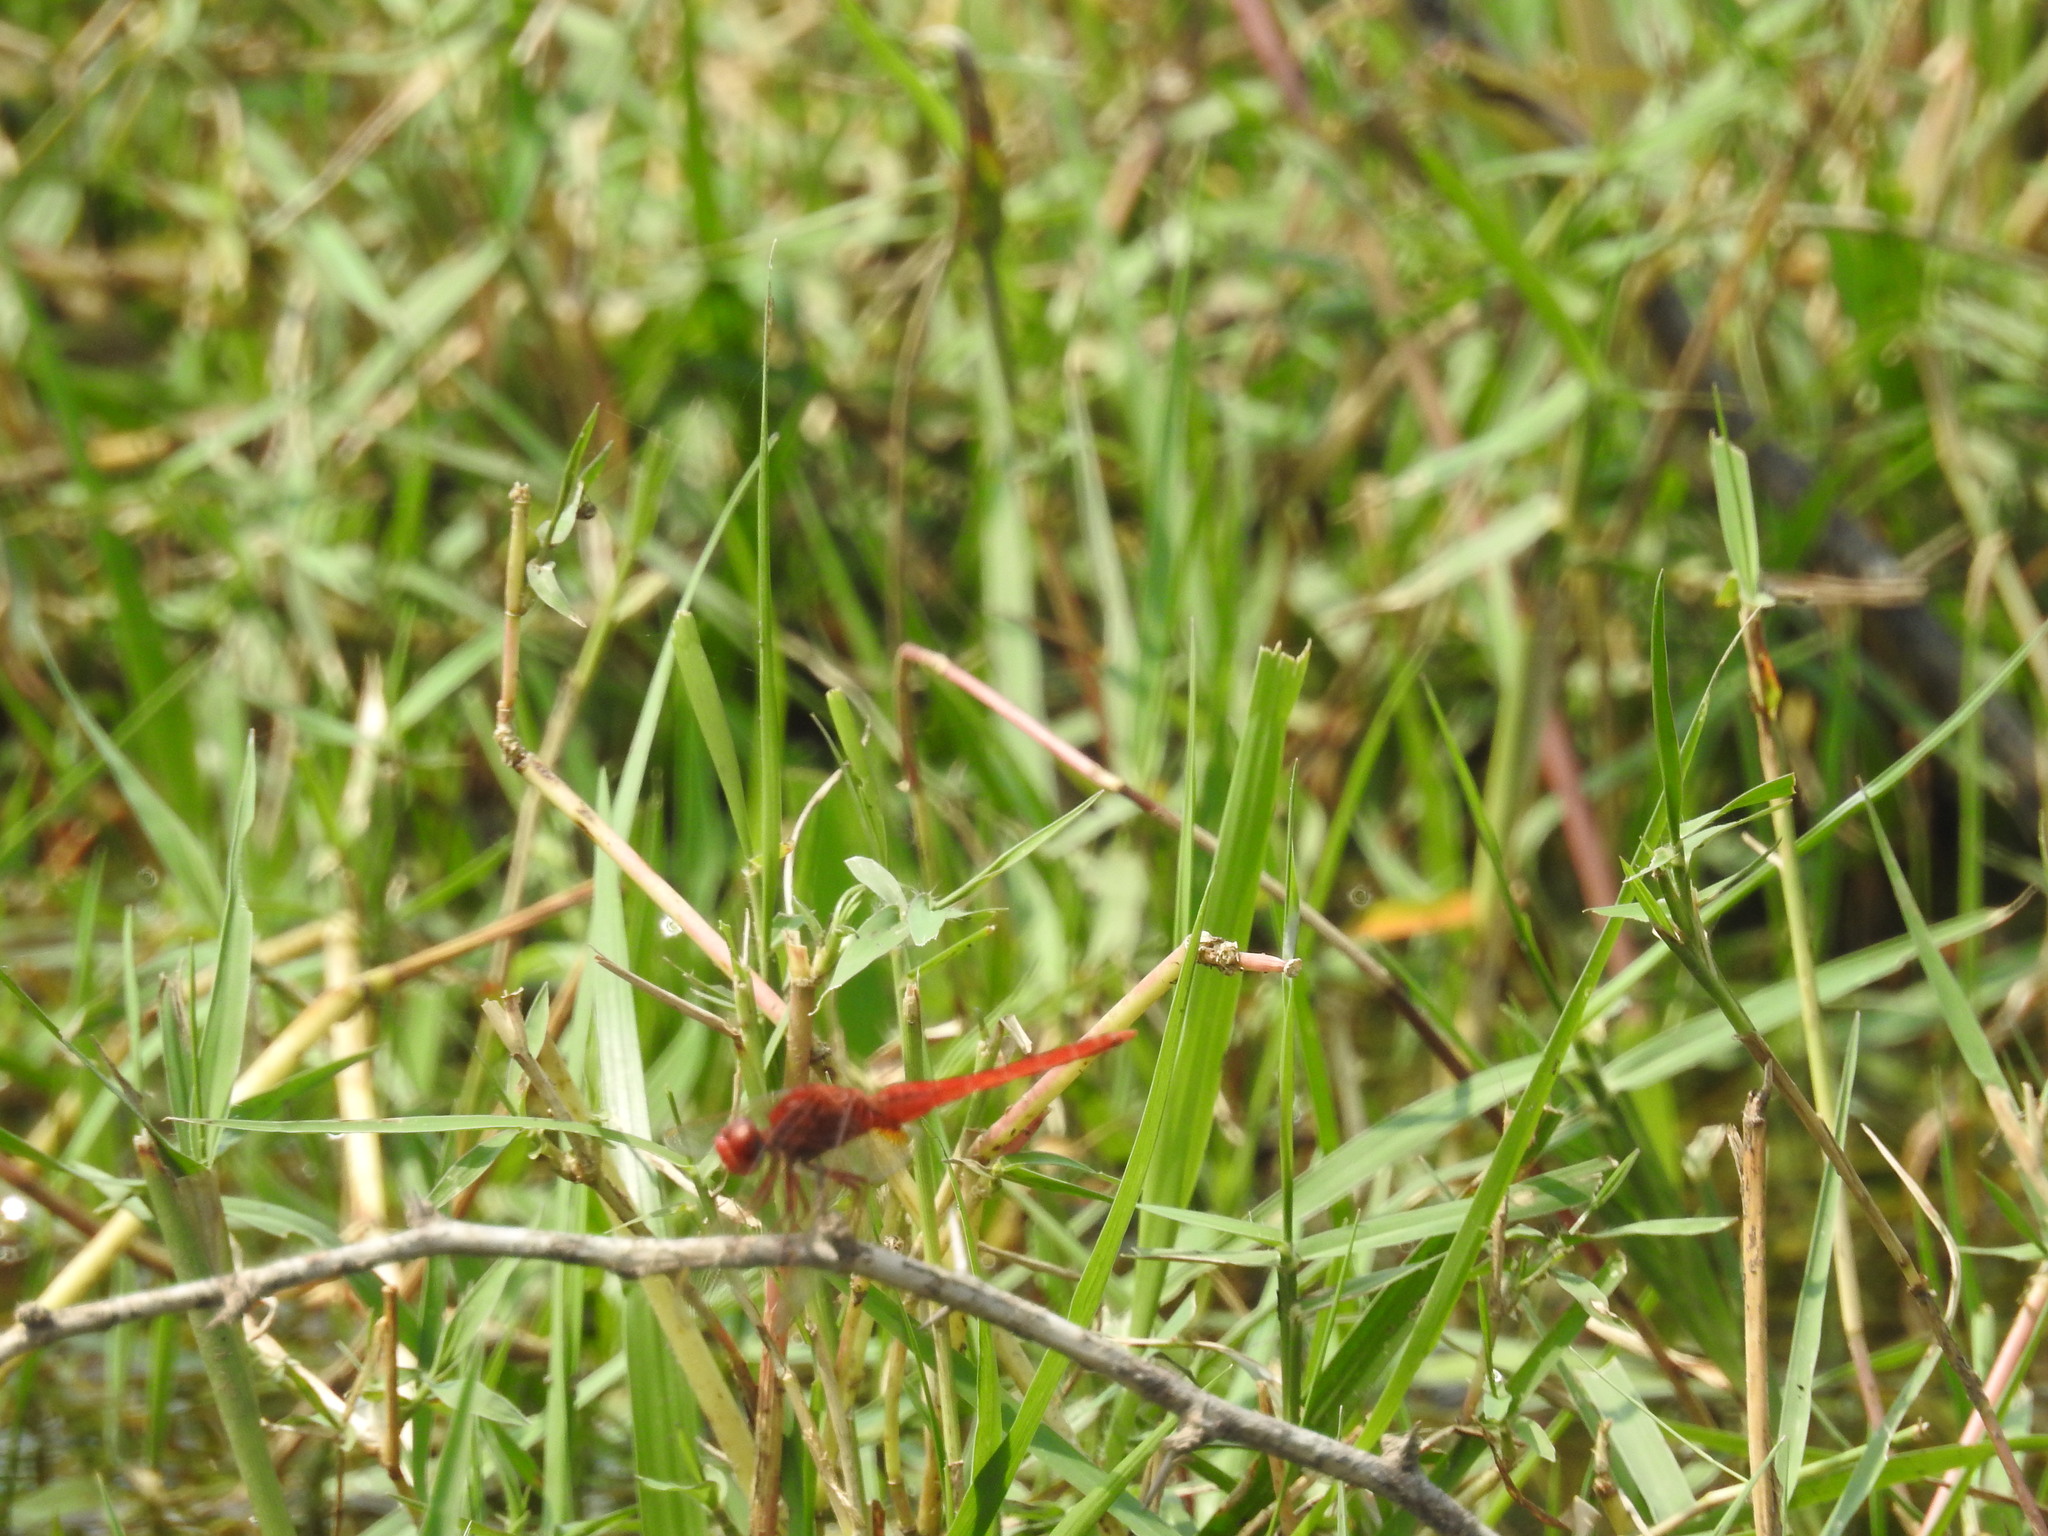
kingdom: Animalia
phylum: Arthropoda
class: Insecta
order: Odonata
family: Libellulidae
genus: Crocothemis
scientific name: Crocothemis servilia
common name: Scarlet skimmer
